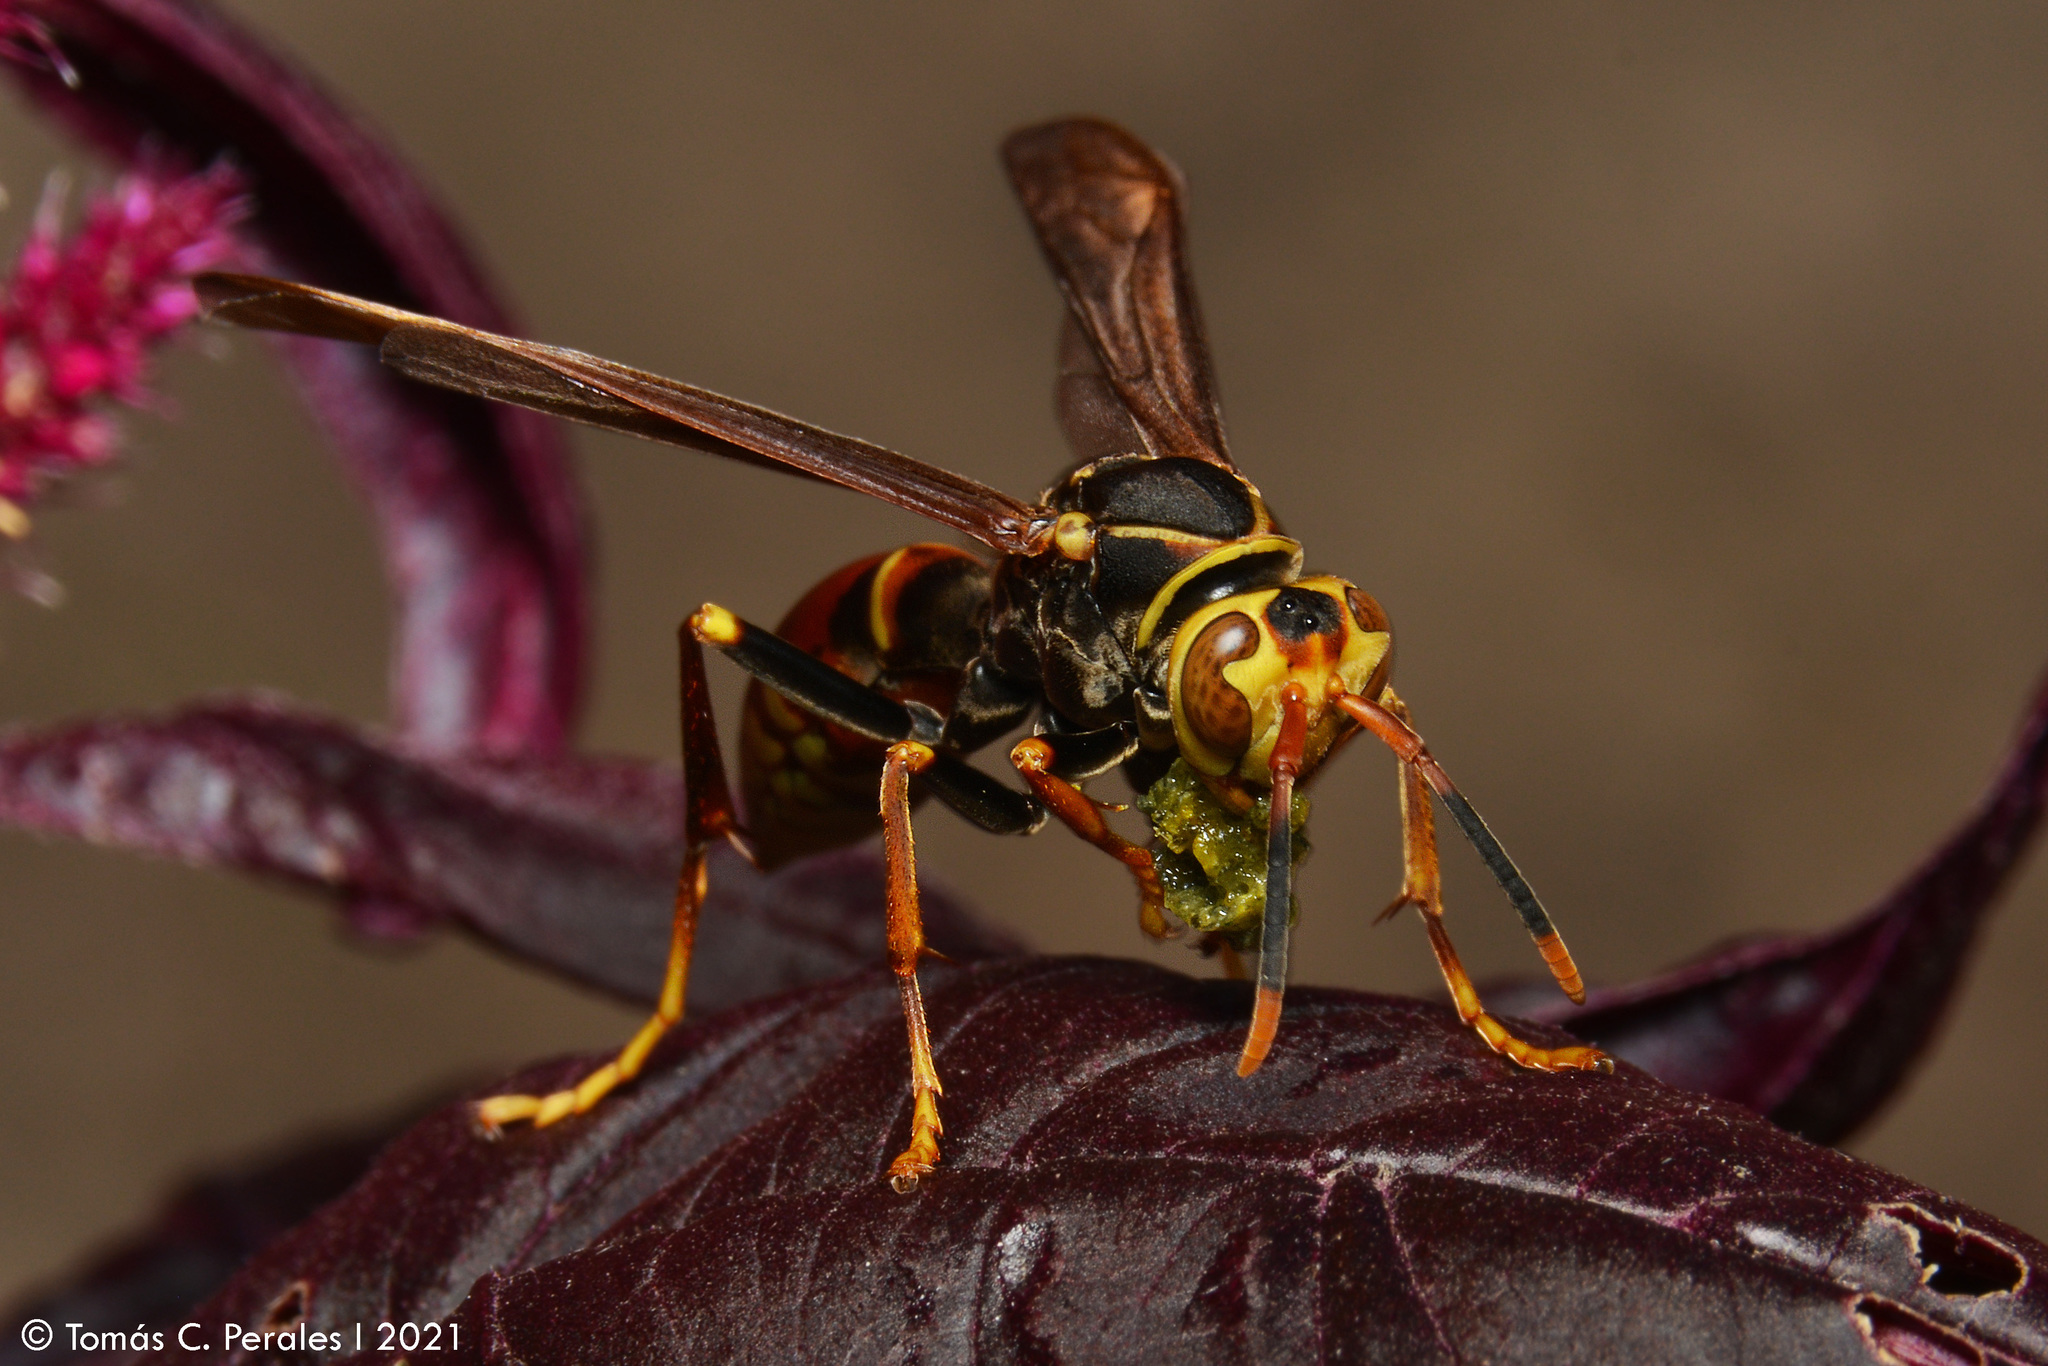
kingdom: Animalia
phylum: Arthropoda
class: Insecta
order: Hymenoptera
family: Eumenidae
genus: Polistes
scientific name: Polistes buyssoni
